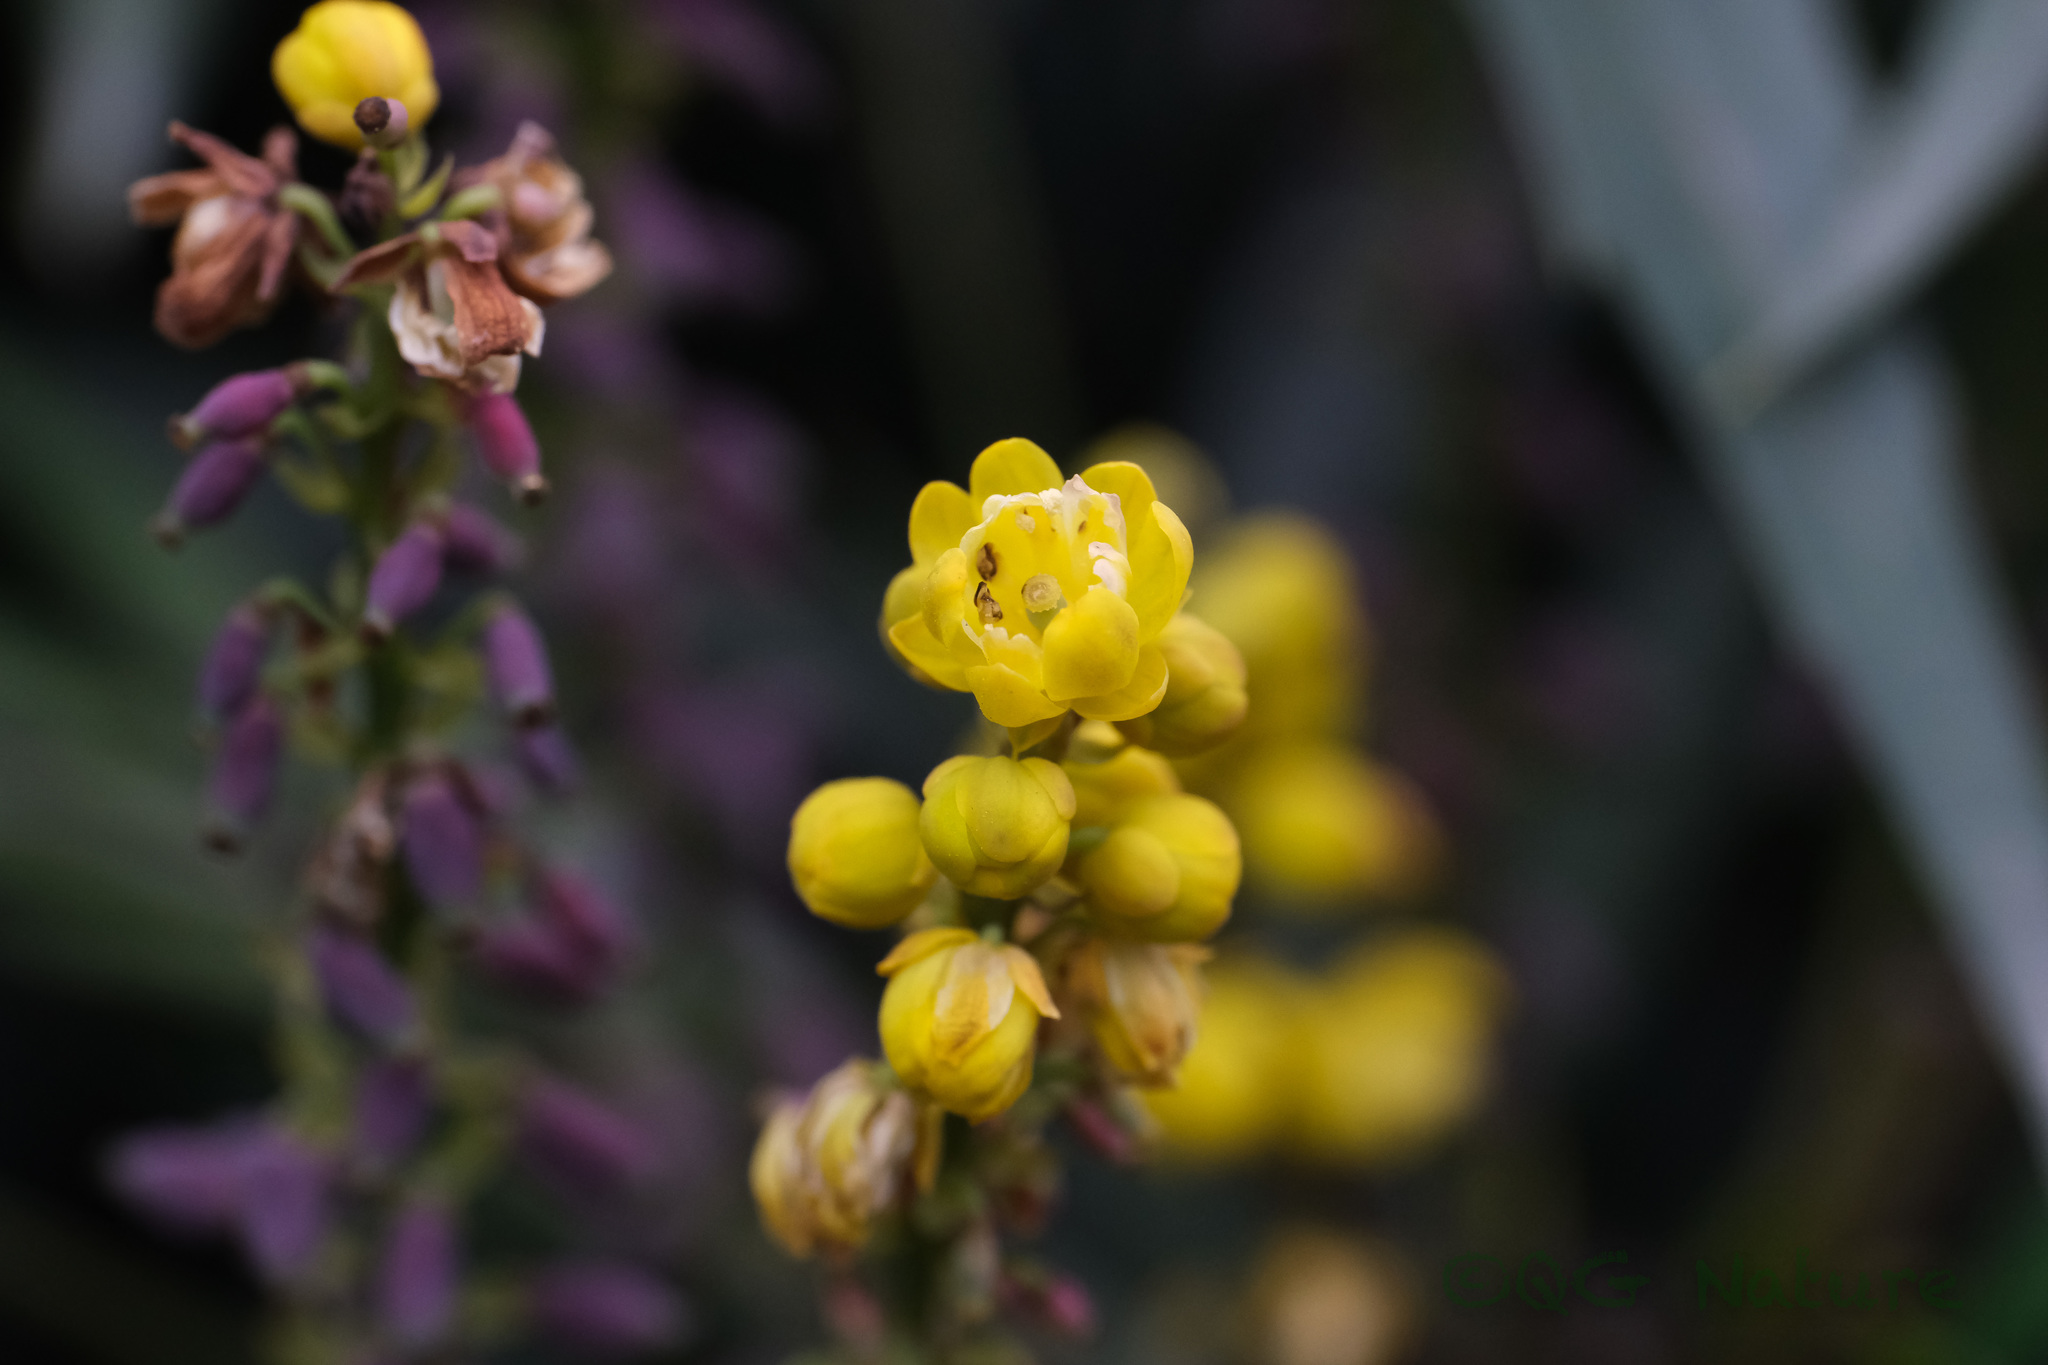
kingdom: Plantae
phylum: Tracheophyta
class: Magnoliopsida
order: Ranunculales
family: Berberidaceae
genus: Mahonia
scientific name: Mahonia fortunei
